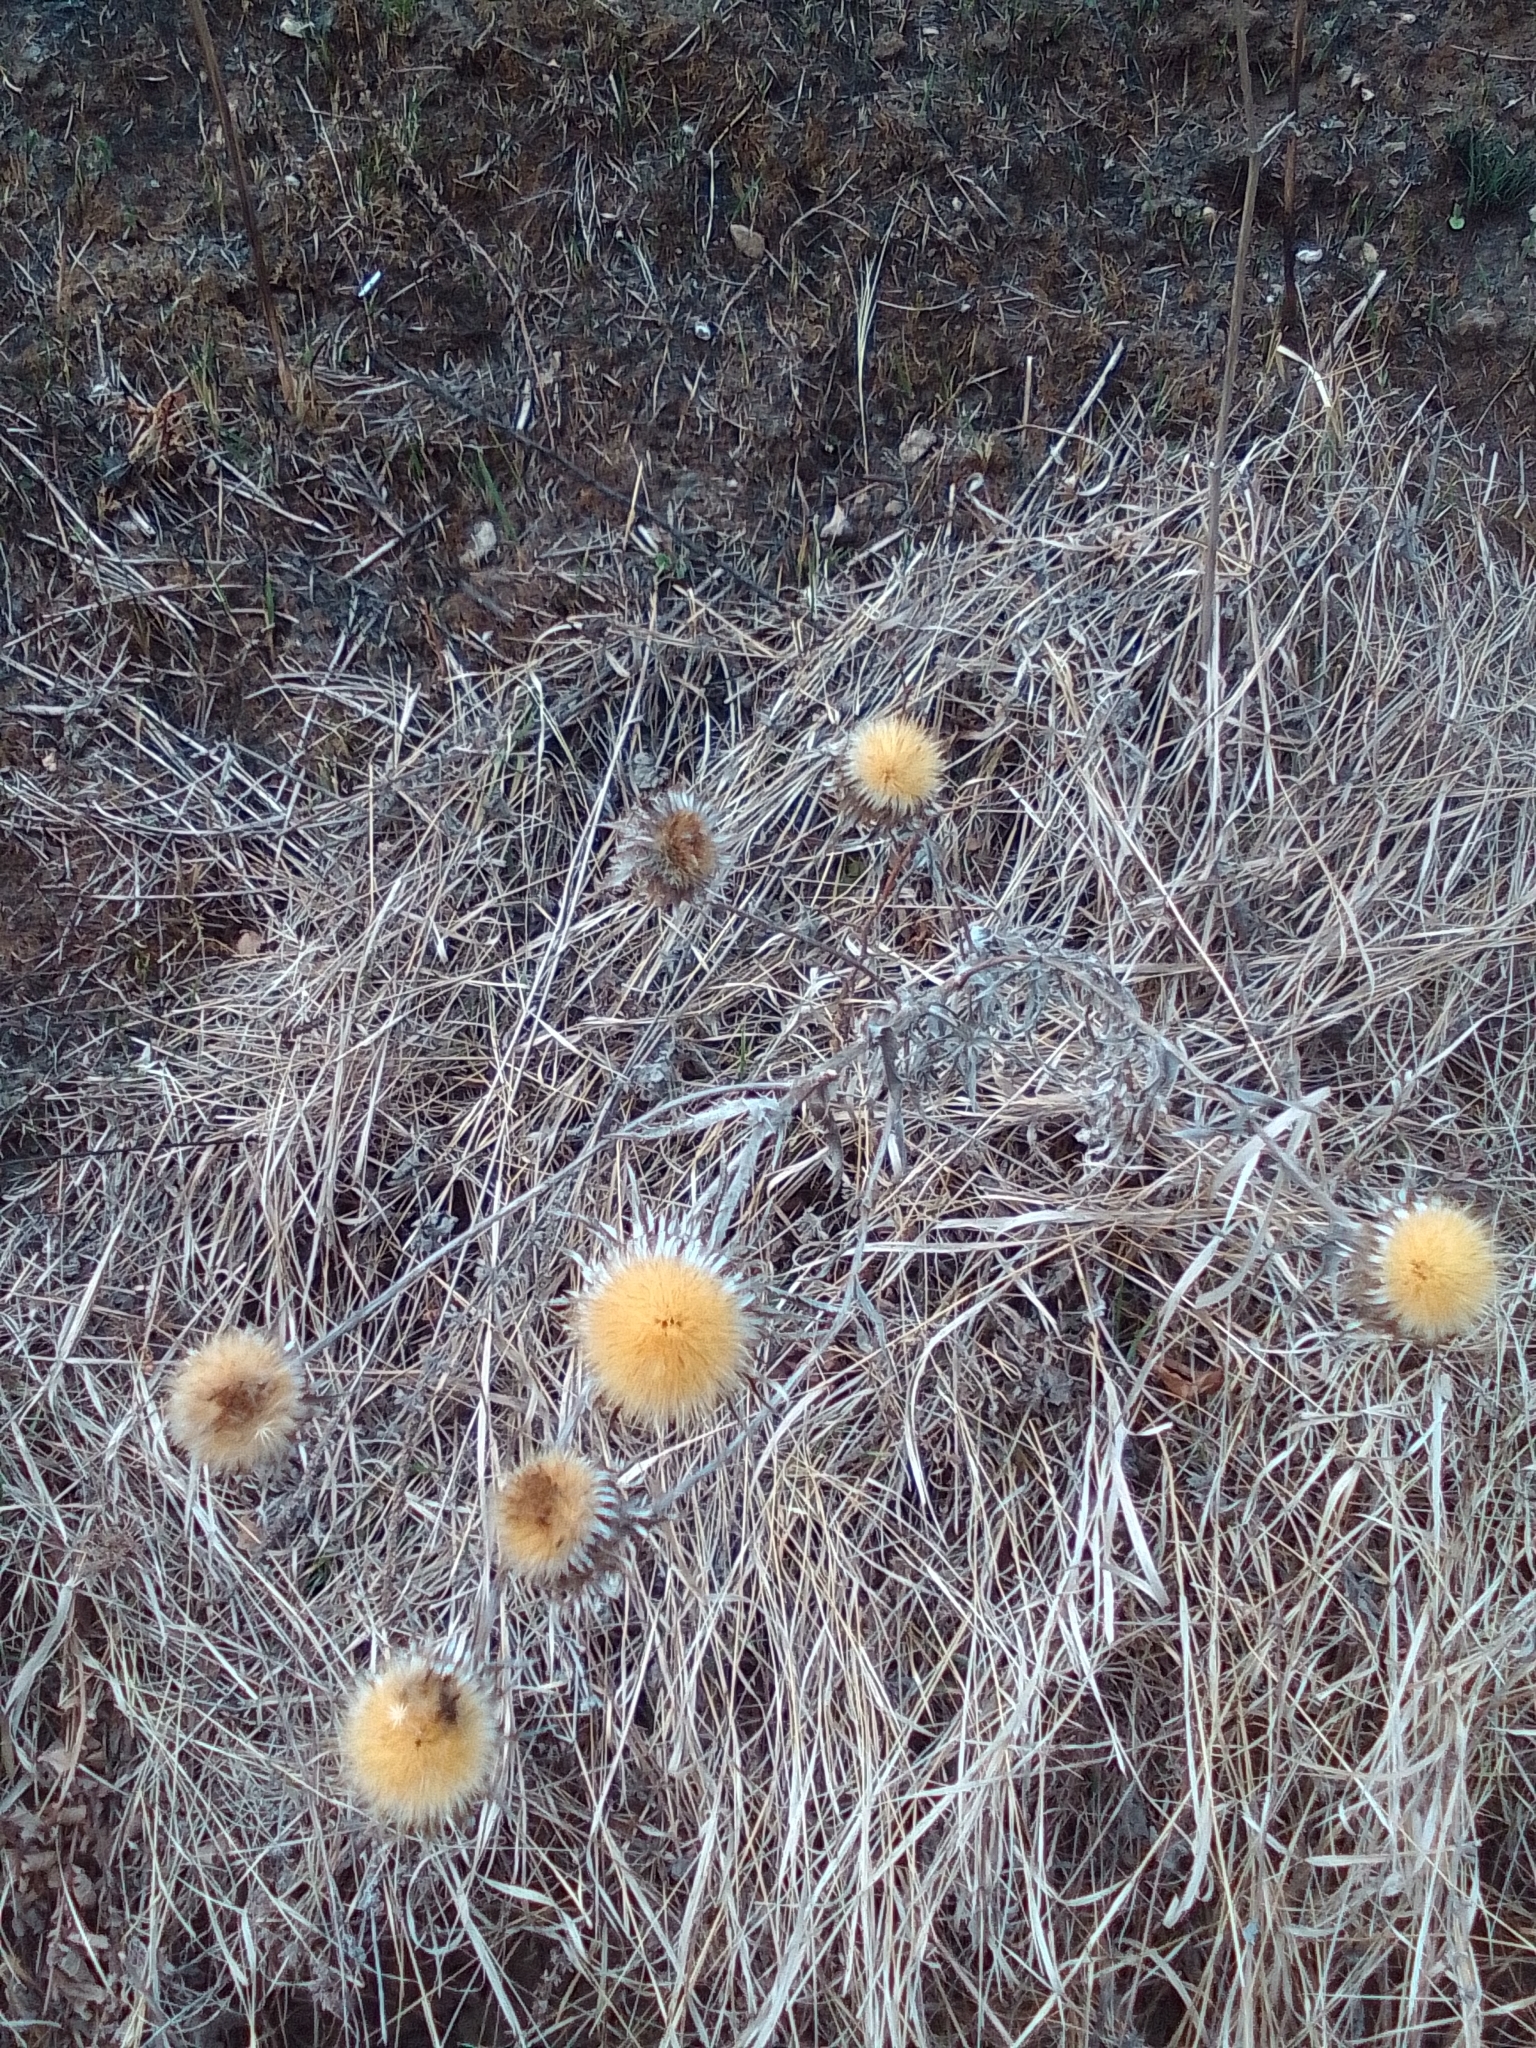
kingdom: Plantae
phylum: Tracheophyta
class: Magnoliopsida
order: Asterales
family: Asteraceae
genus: Carlina
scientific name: Carlina biebersteinii
